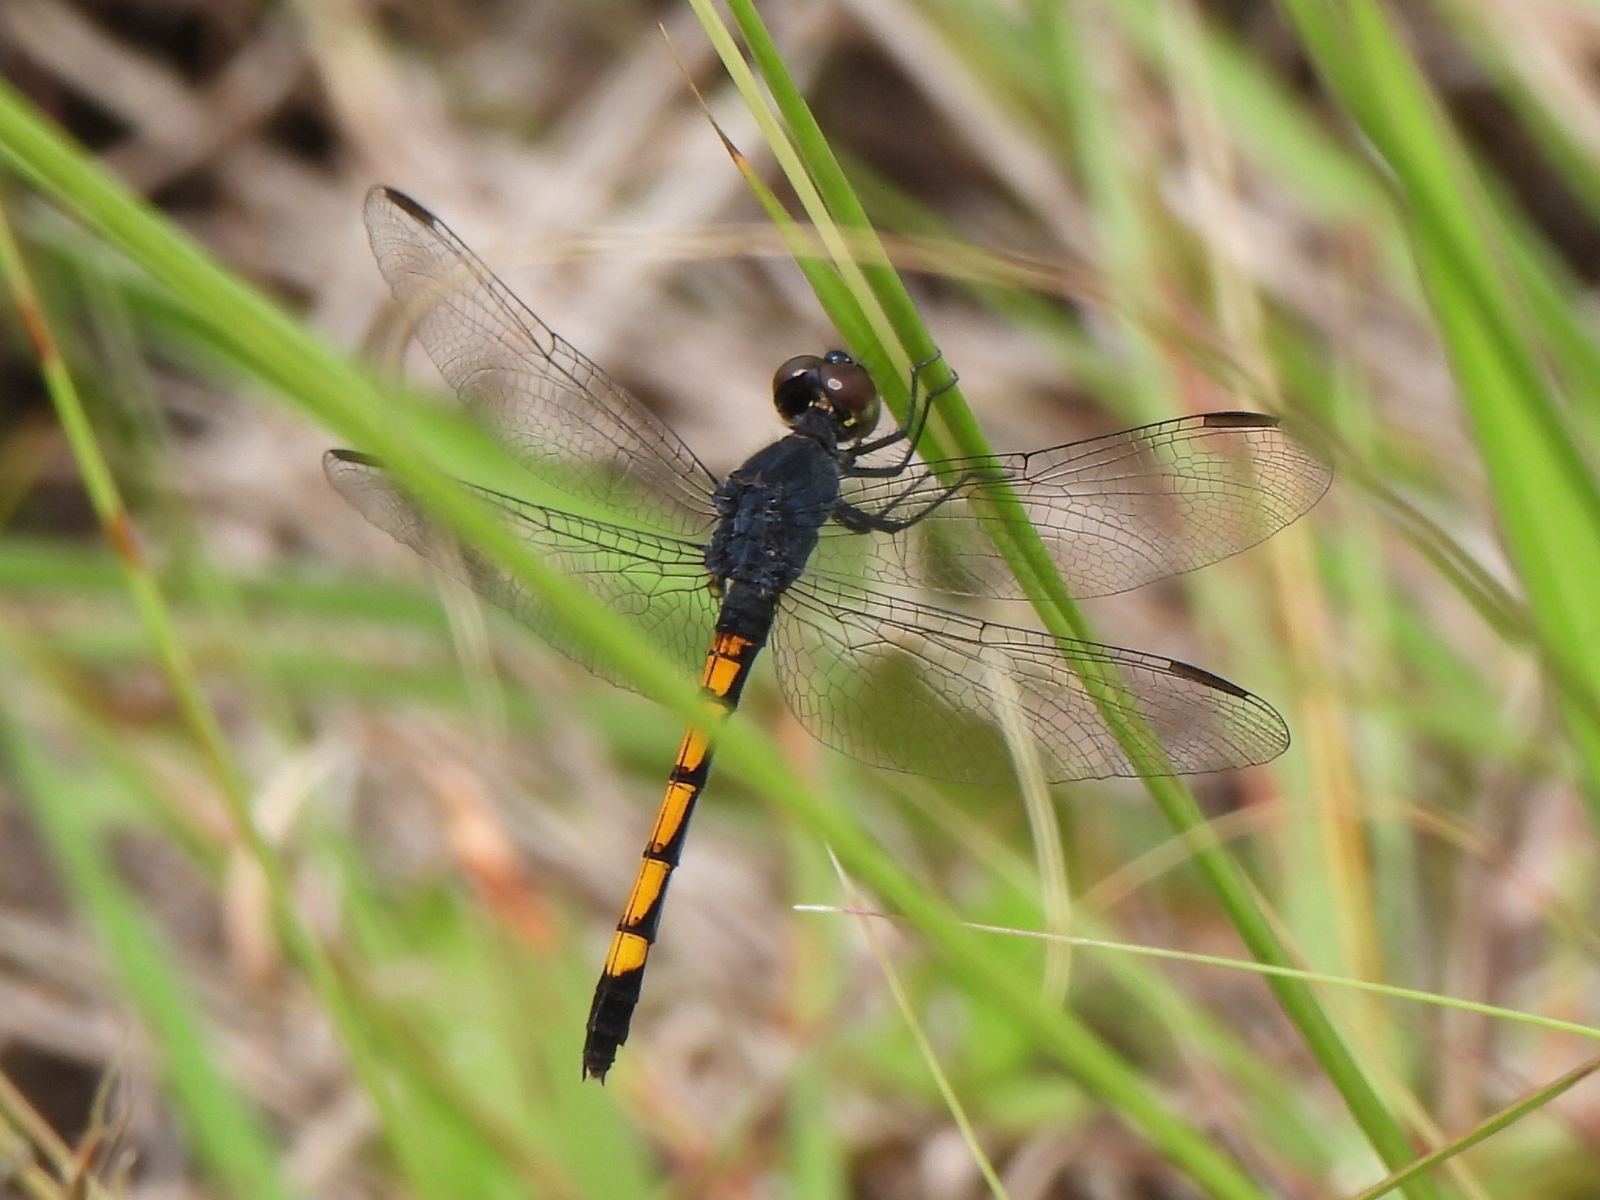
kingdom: Animalia
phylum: Arthropoda
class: Insecta
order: Odonata
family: Libellulidae
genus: Erythrodiplax
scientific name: Erythrodiplax berenice
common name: Seaside dragonlet
